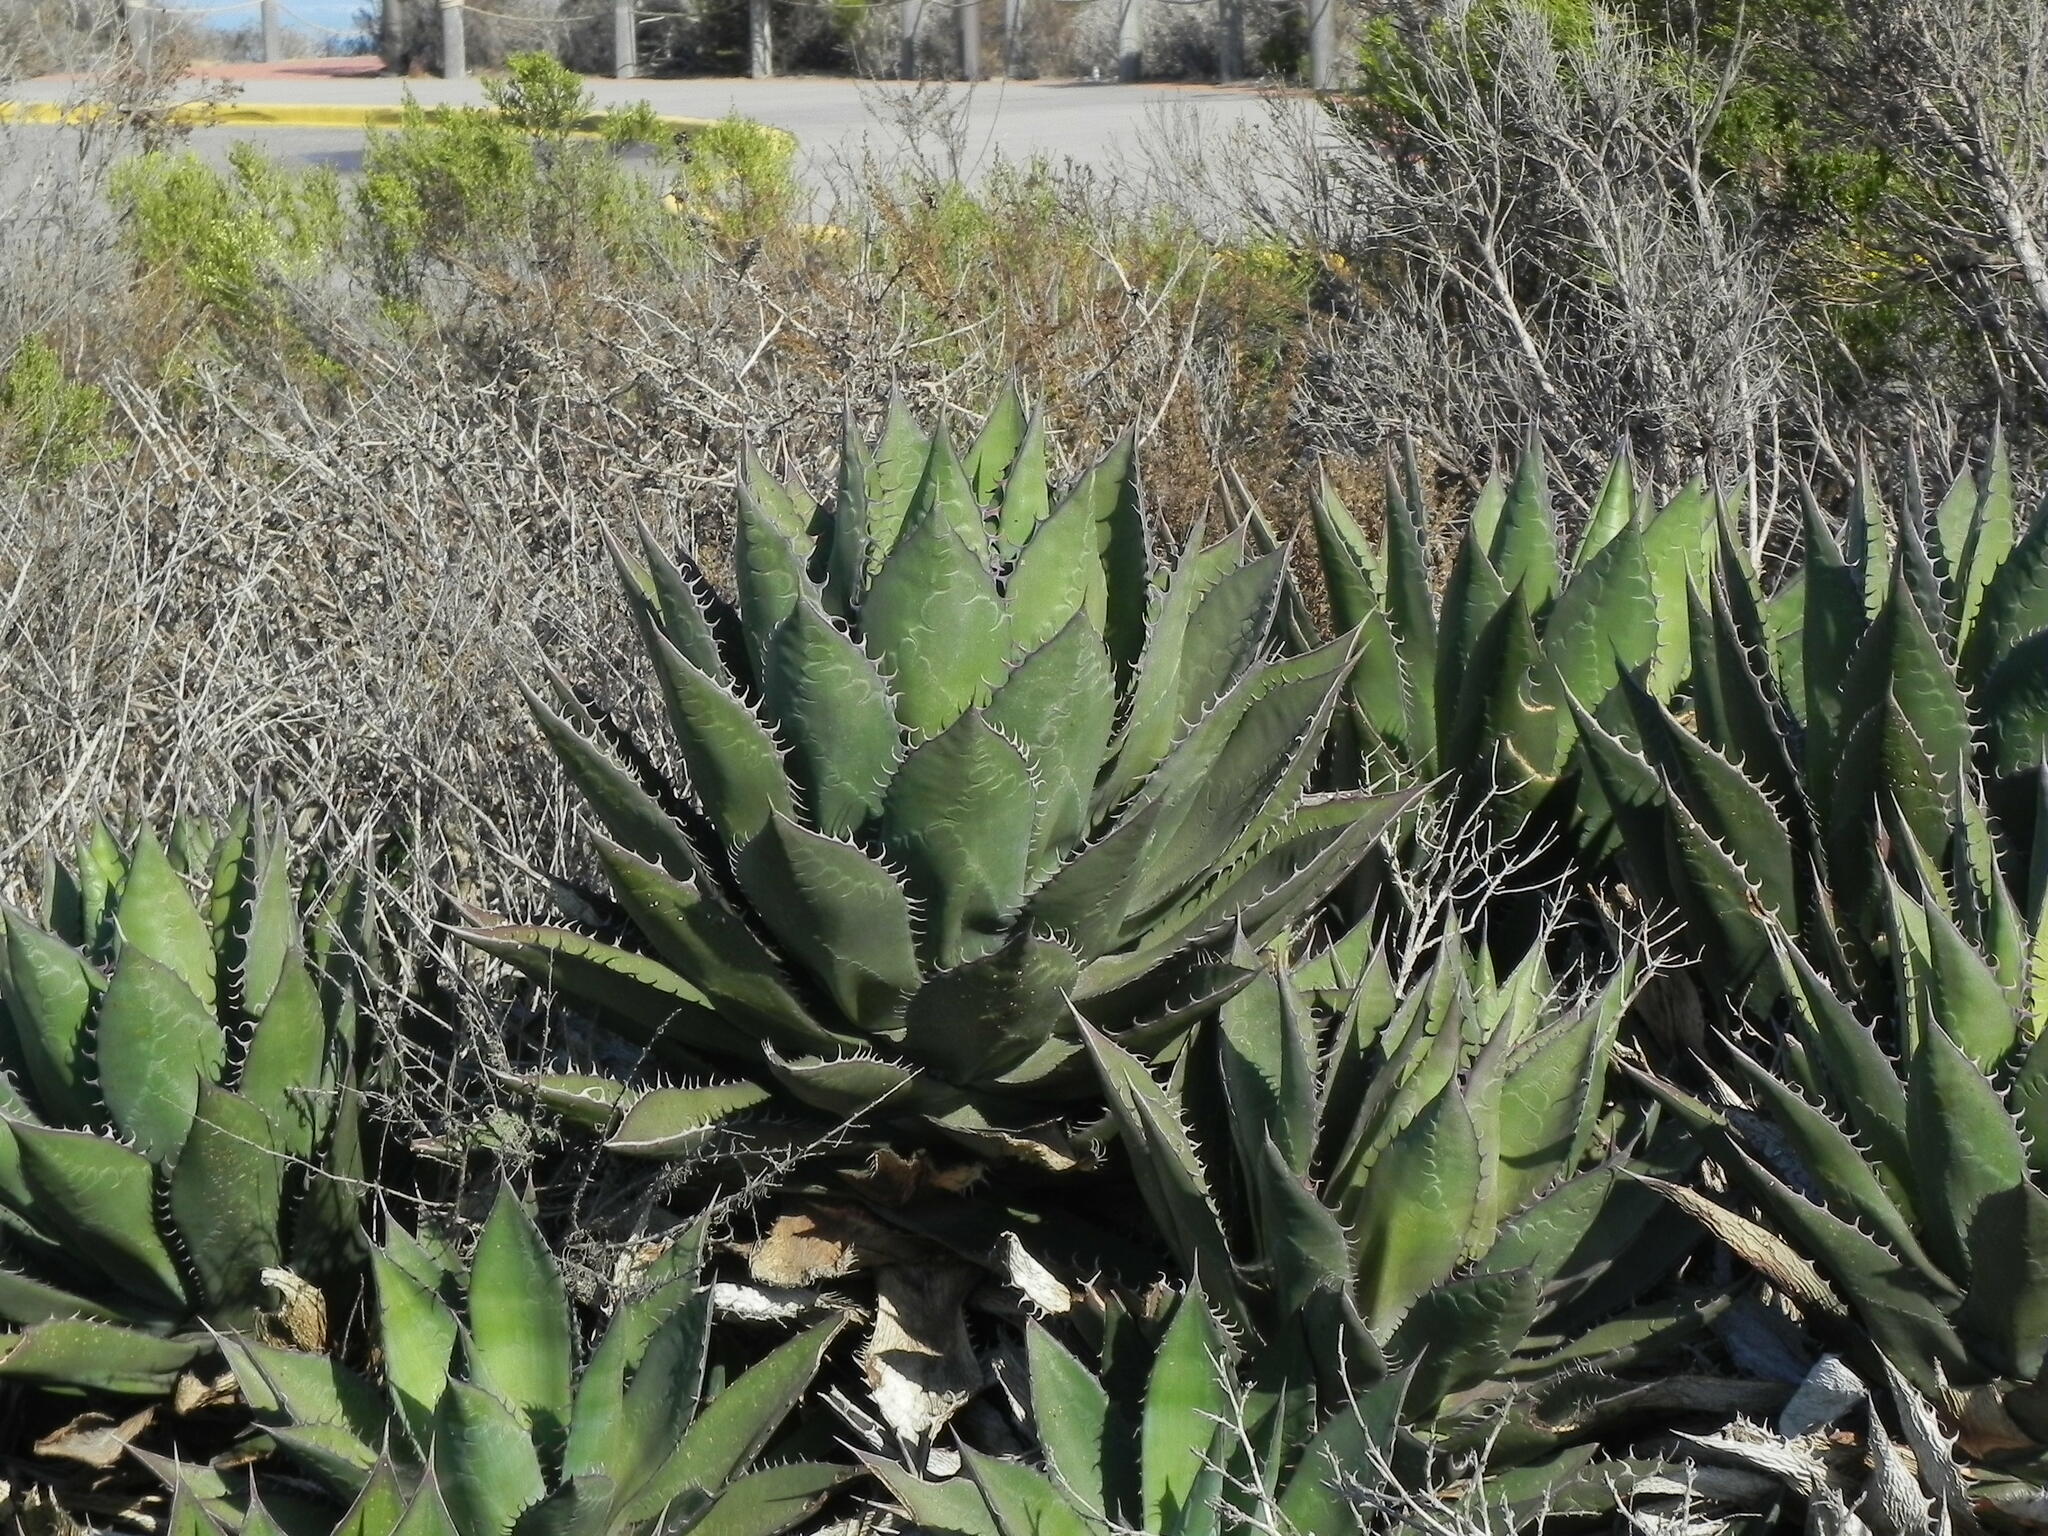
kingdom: Plantae
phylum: Tracheophyta
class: Liliopsida
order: Asparagales
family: Asparagaceae
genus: Agave
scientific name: Agave shawii
